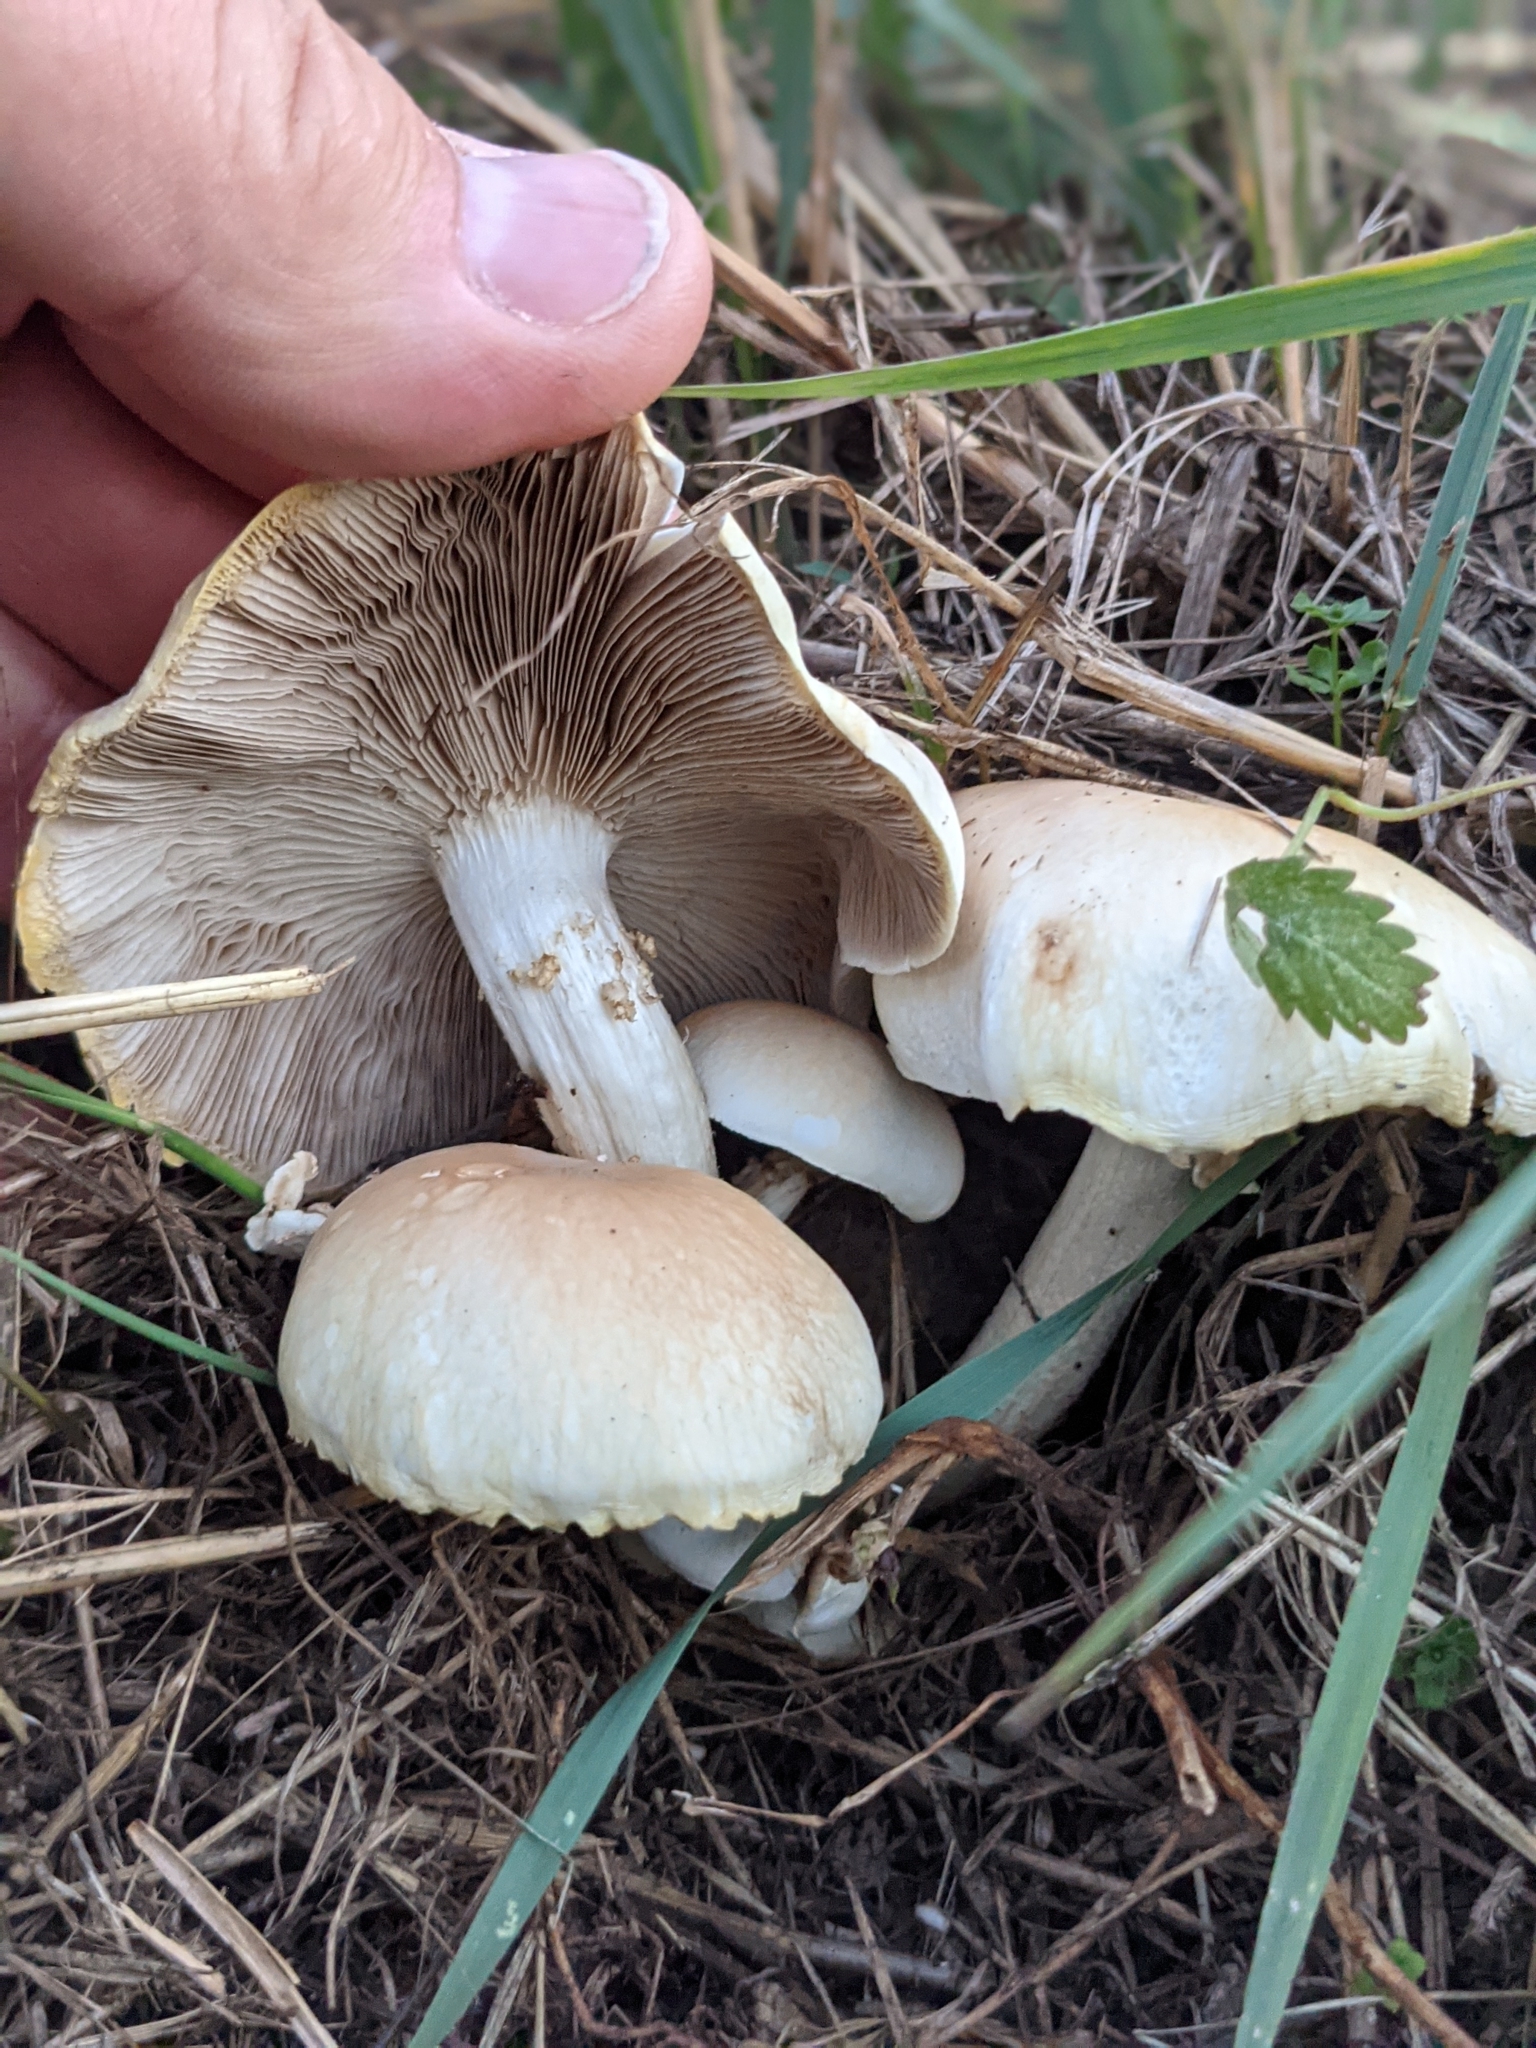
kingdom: Fungi
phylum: Basidiomycota
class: Agaricomycetes
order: Agaricales
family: Tubariaceae
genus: Cyclocybe
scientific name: Cyclocybe cylindracea
